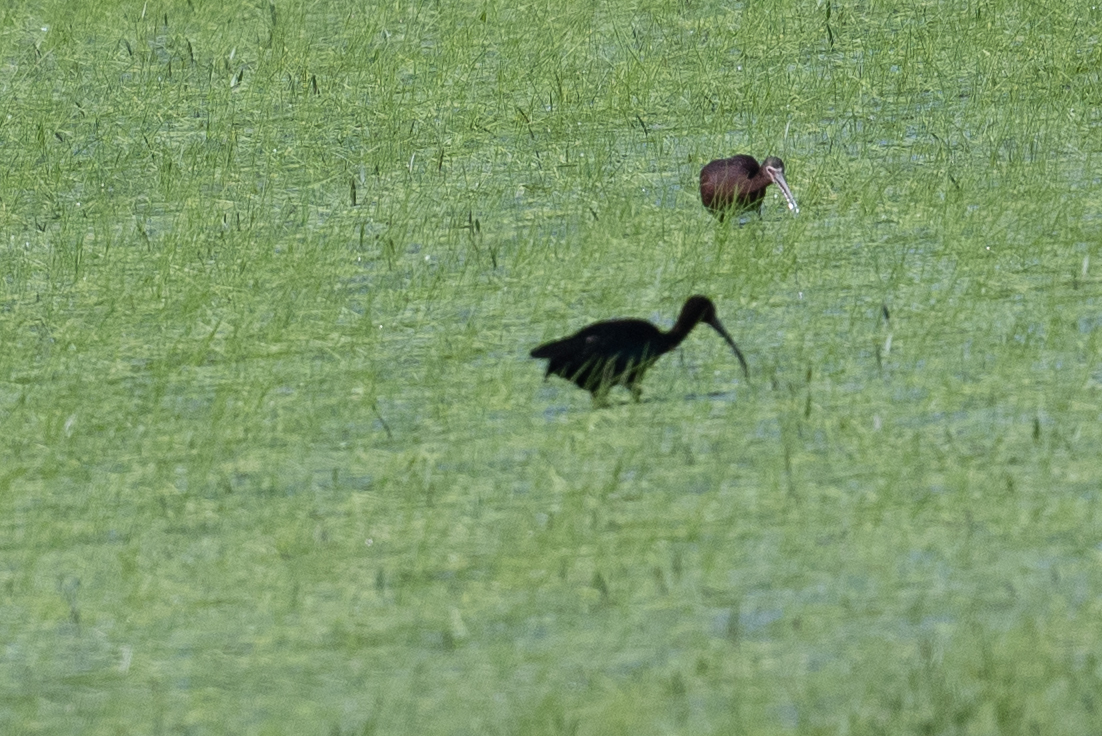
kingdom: Animalia
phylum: Chordata
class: Aves
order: Pelecaniformes
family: Threskiornithidae
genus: Plegadis
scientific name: Plegadis chihi
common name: White-faced ibis
